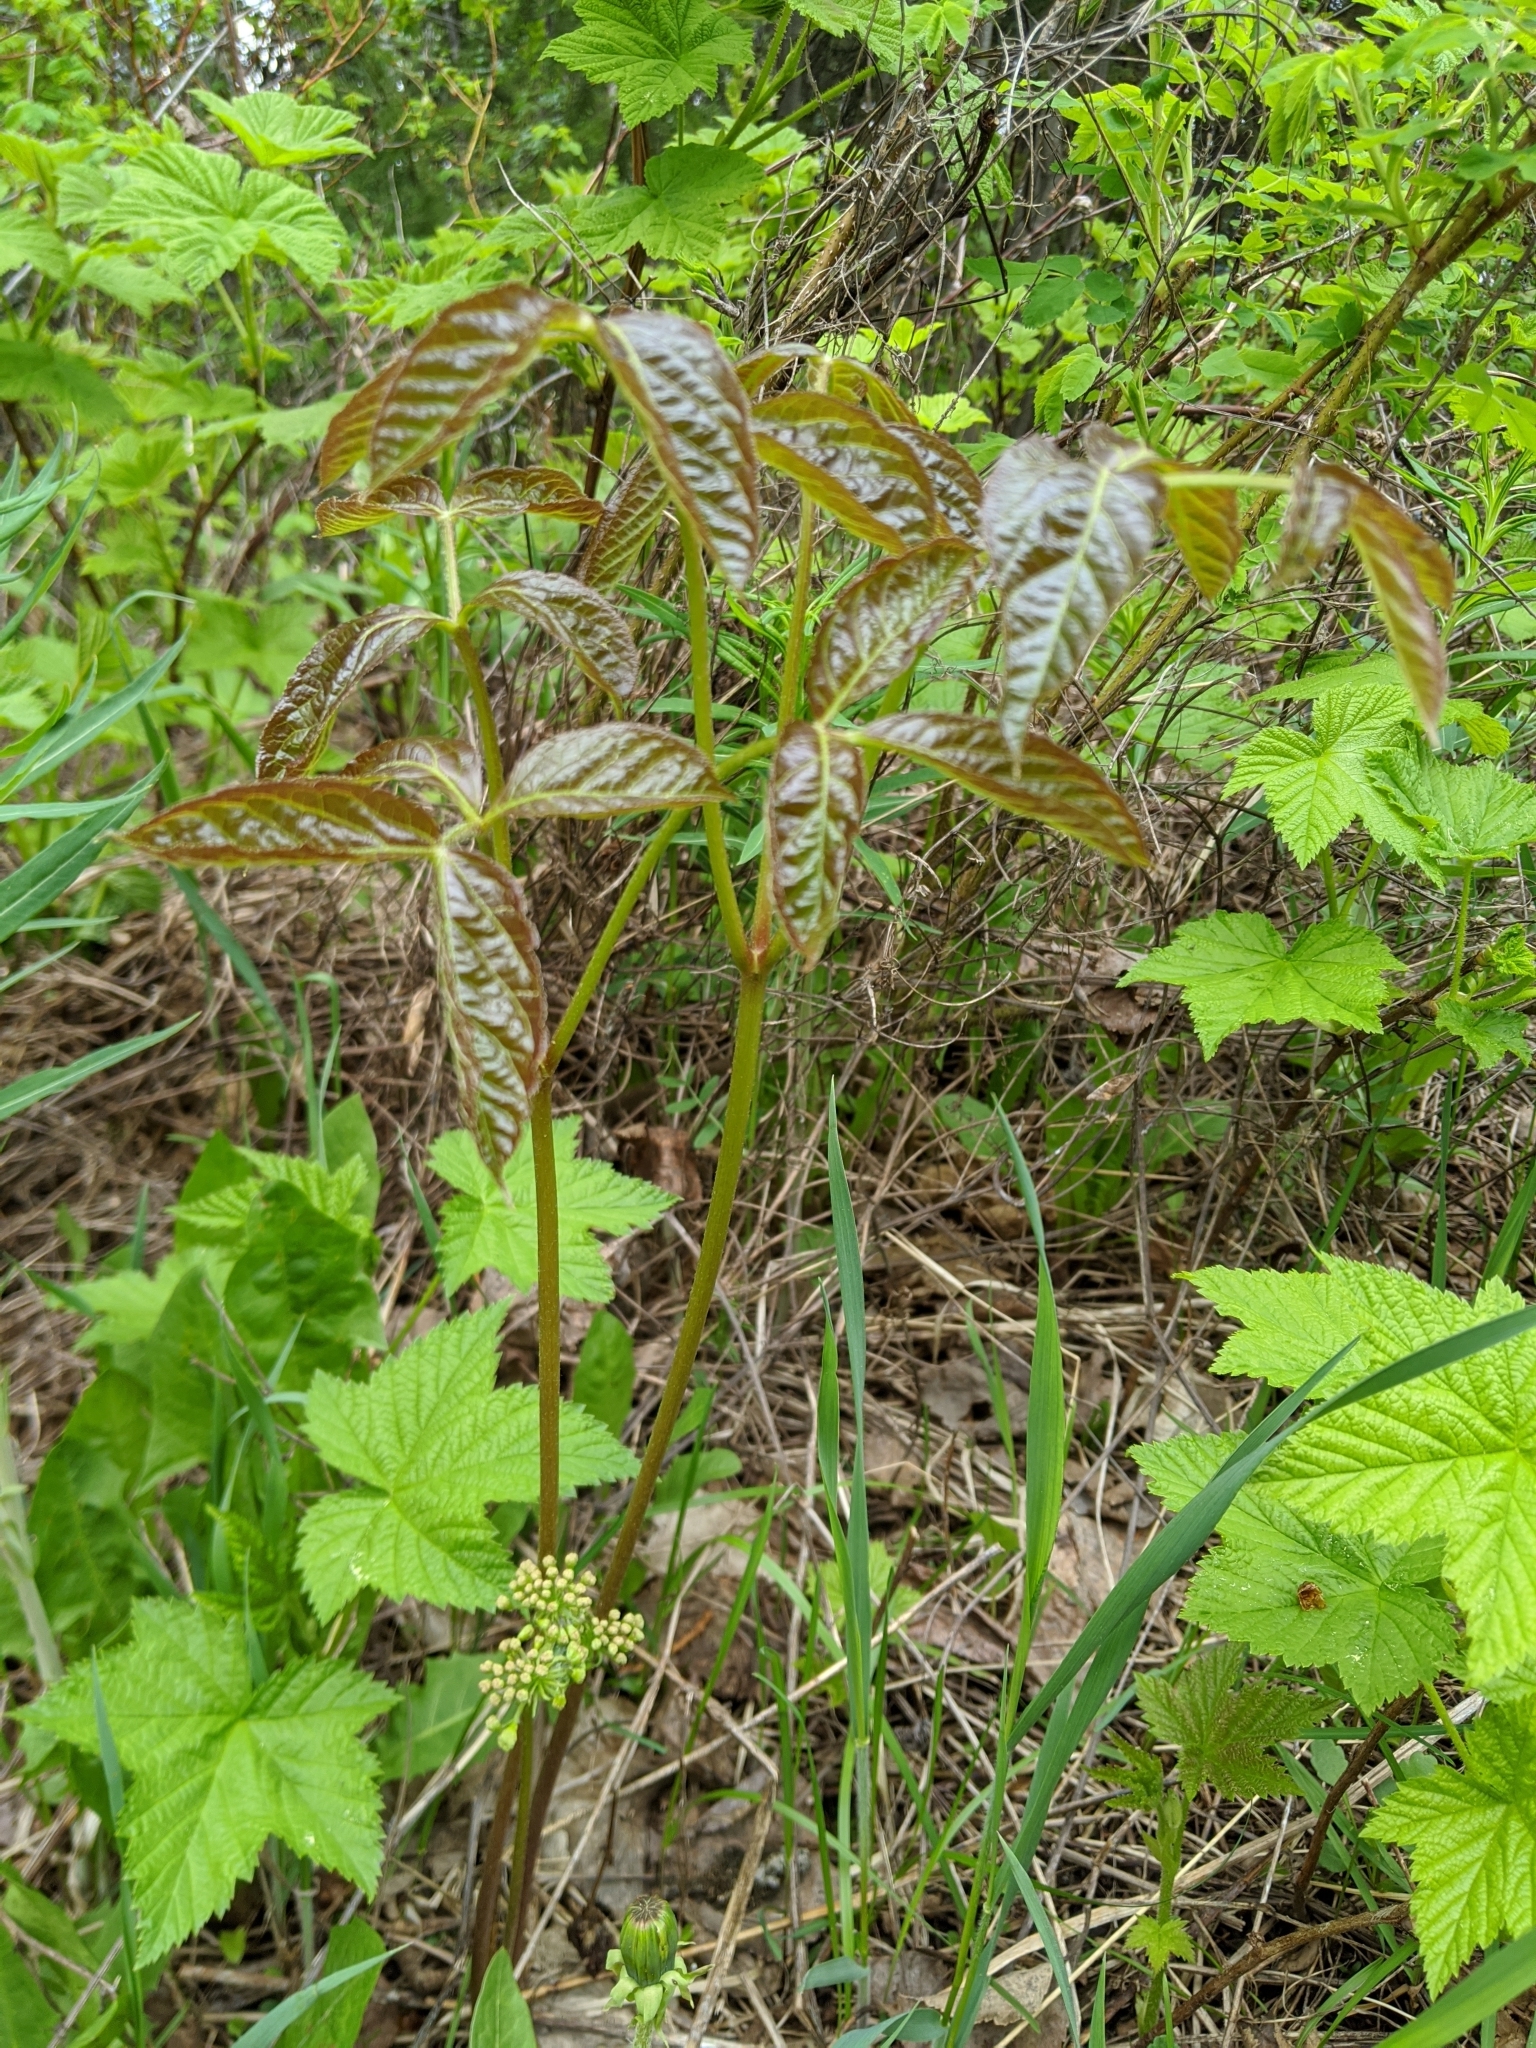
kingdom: Plantae
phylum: Tracheophyta
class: Magnoliopsida
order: Apiales
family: Araliaceae
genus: Aralia
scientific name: Aralia nudicaulis
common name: Wild sarsaparilla
